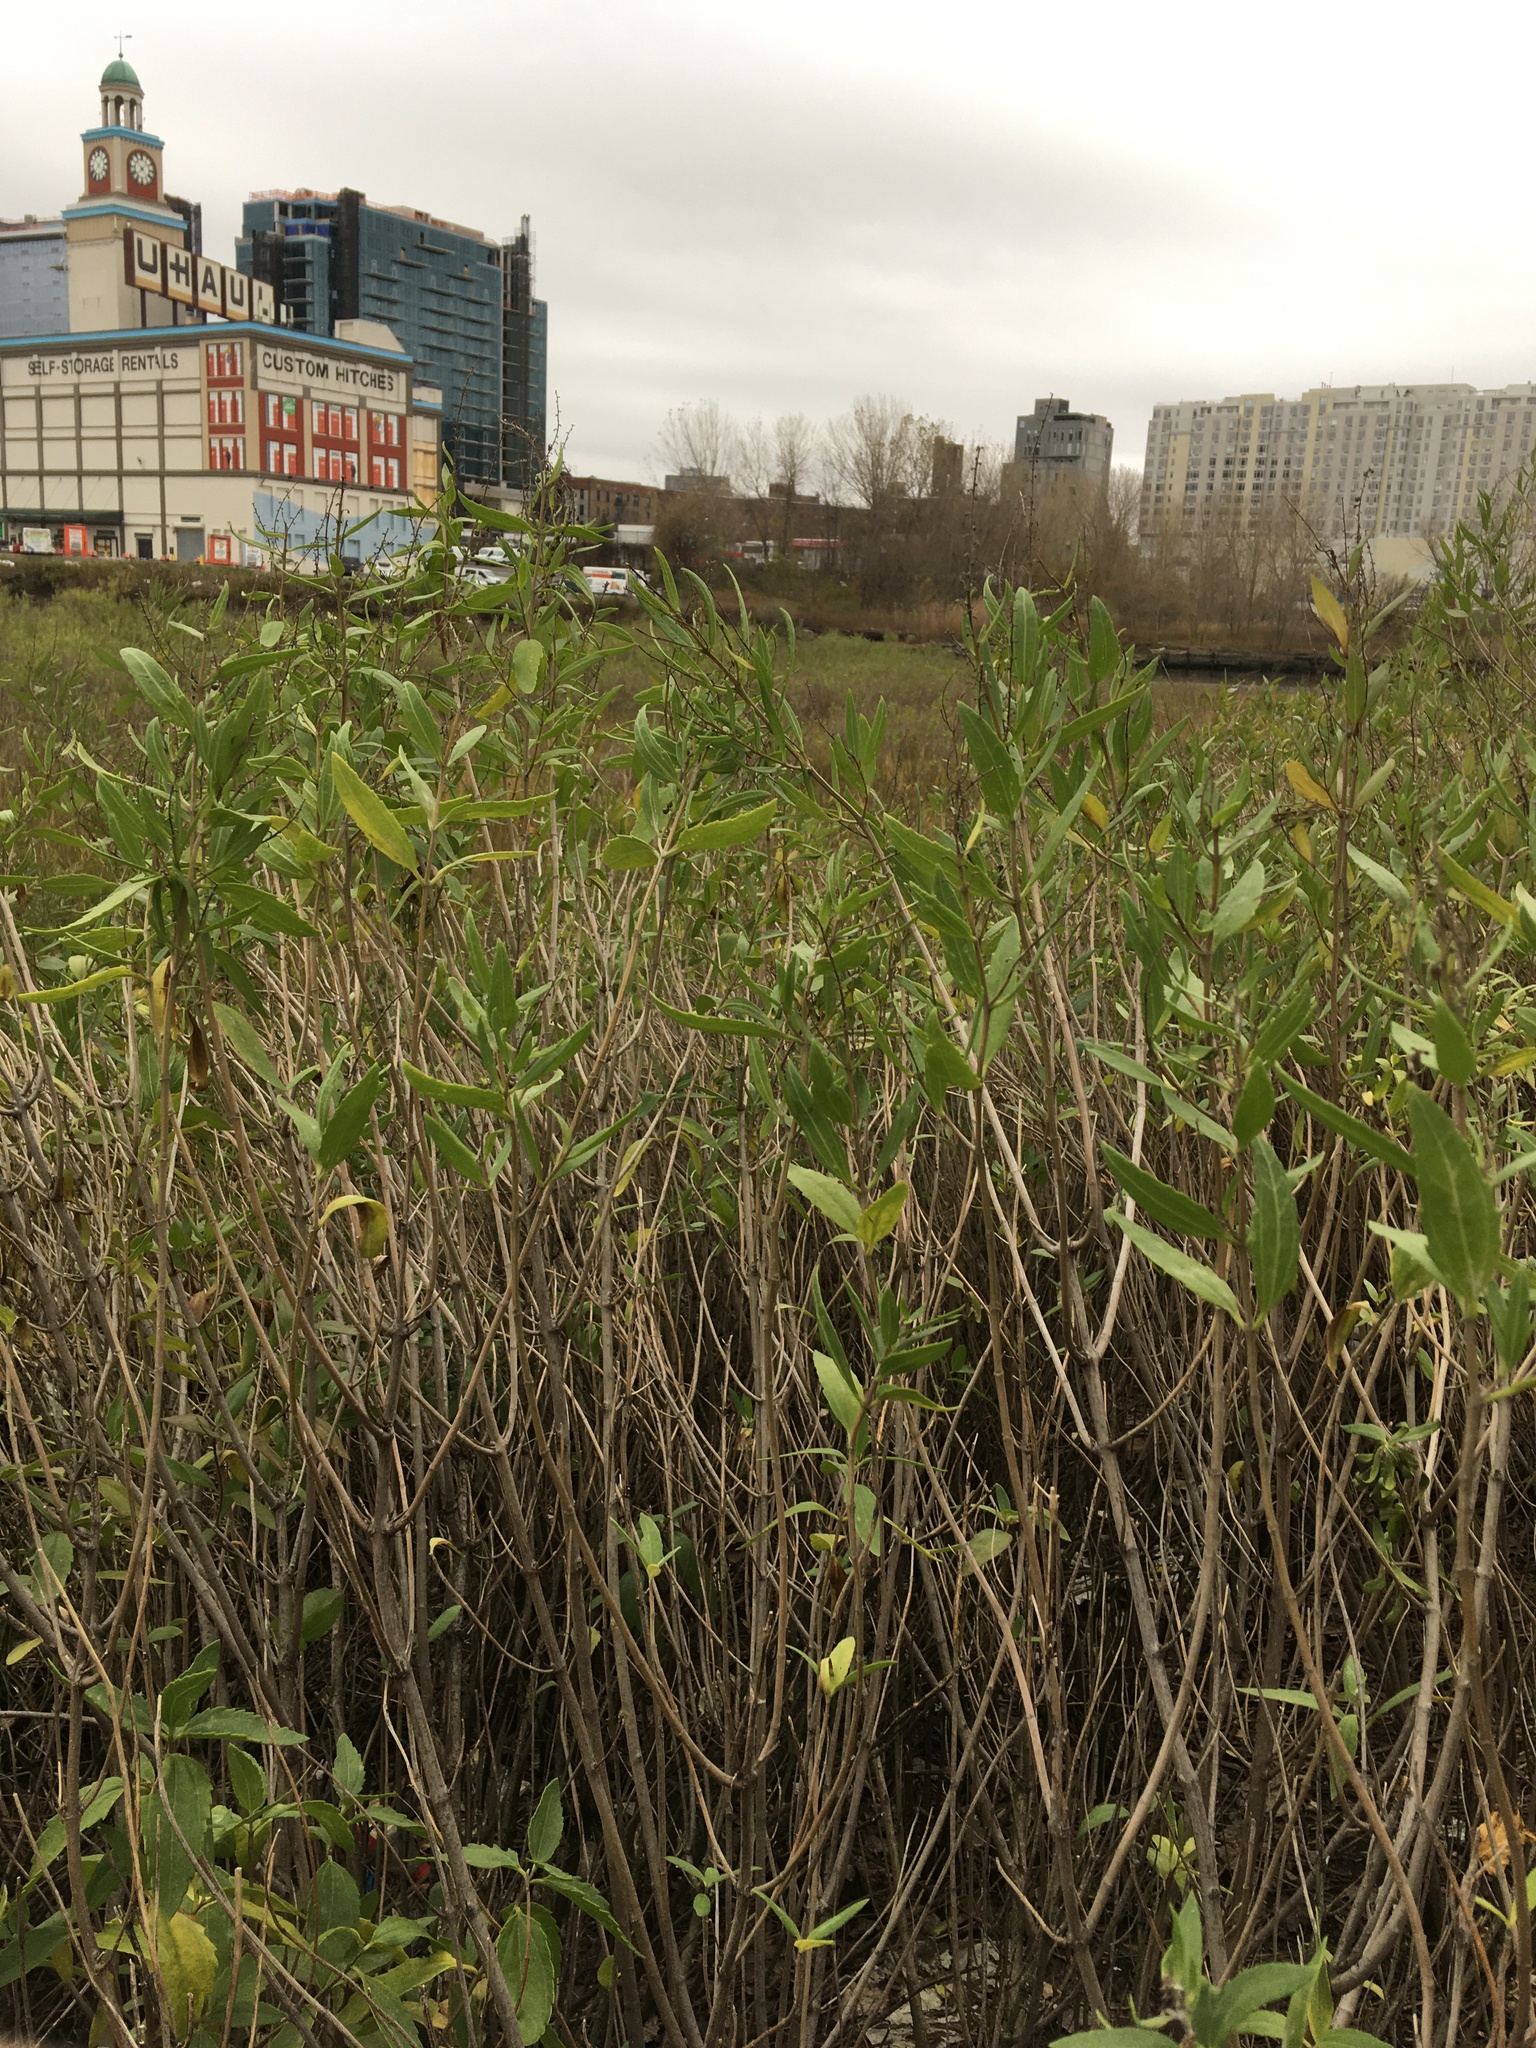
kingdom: Plantae
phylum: Tracheophyta
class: Magnoliopsida
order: Asterales
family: Asteraceae
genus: Iva
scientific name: Iva frutescens
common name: Big-leaved marsh-elder
